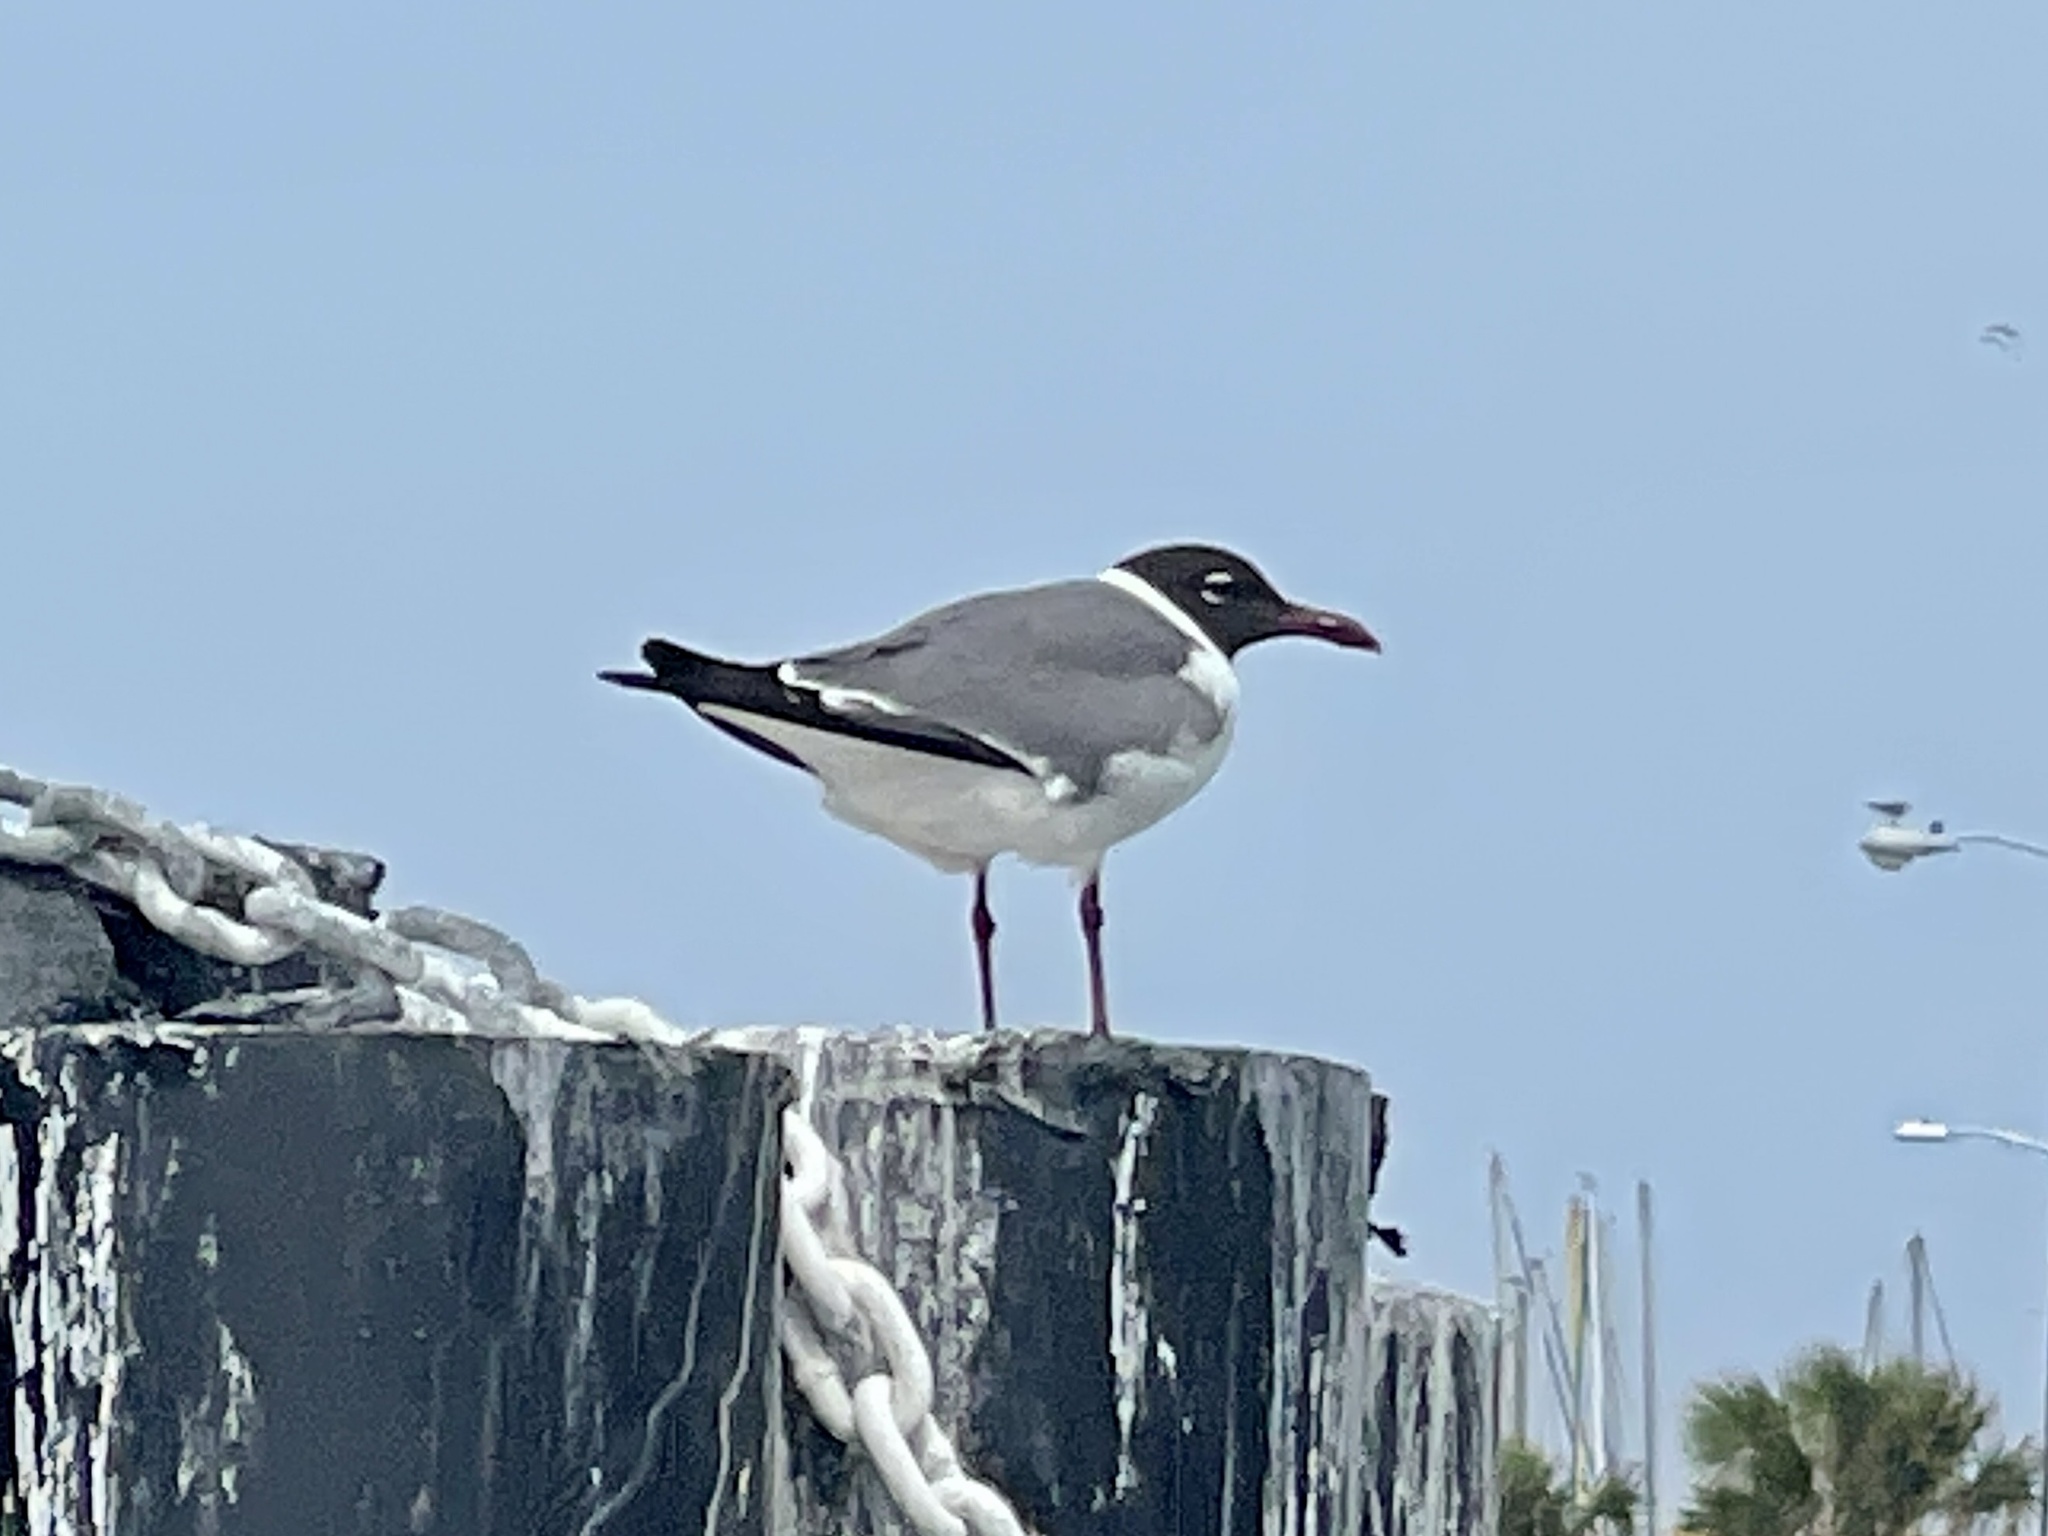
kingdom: Animalia
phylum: Chordata
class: Aves
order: Charadriiformes
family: Laridae
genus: Leucophaeus
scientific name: Leucophaeus atricilla
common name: Laughing gull
